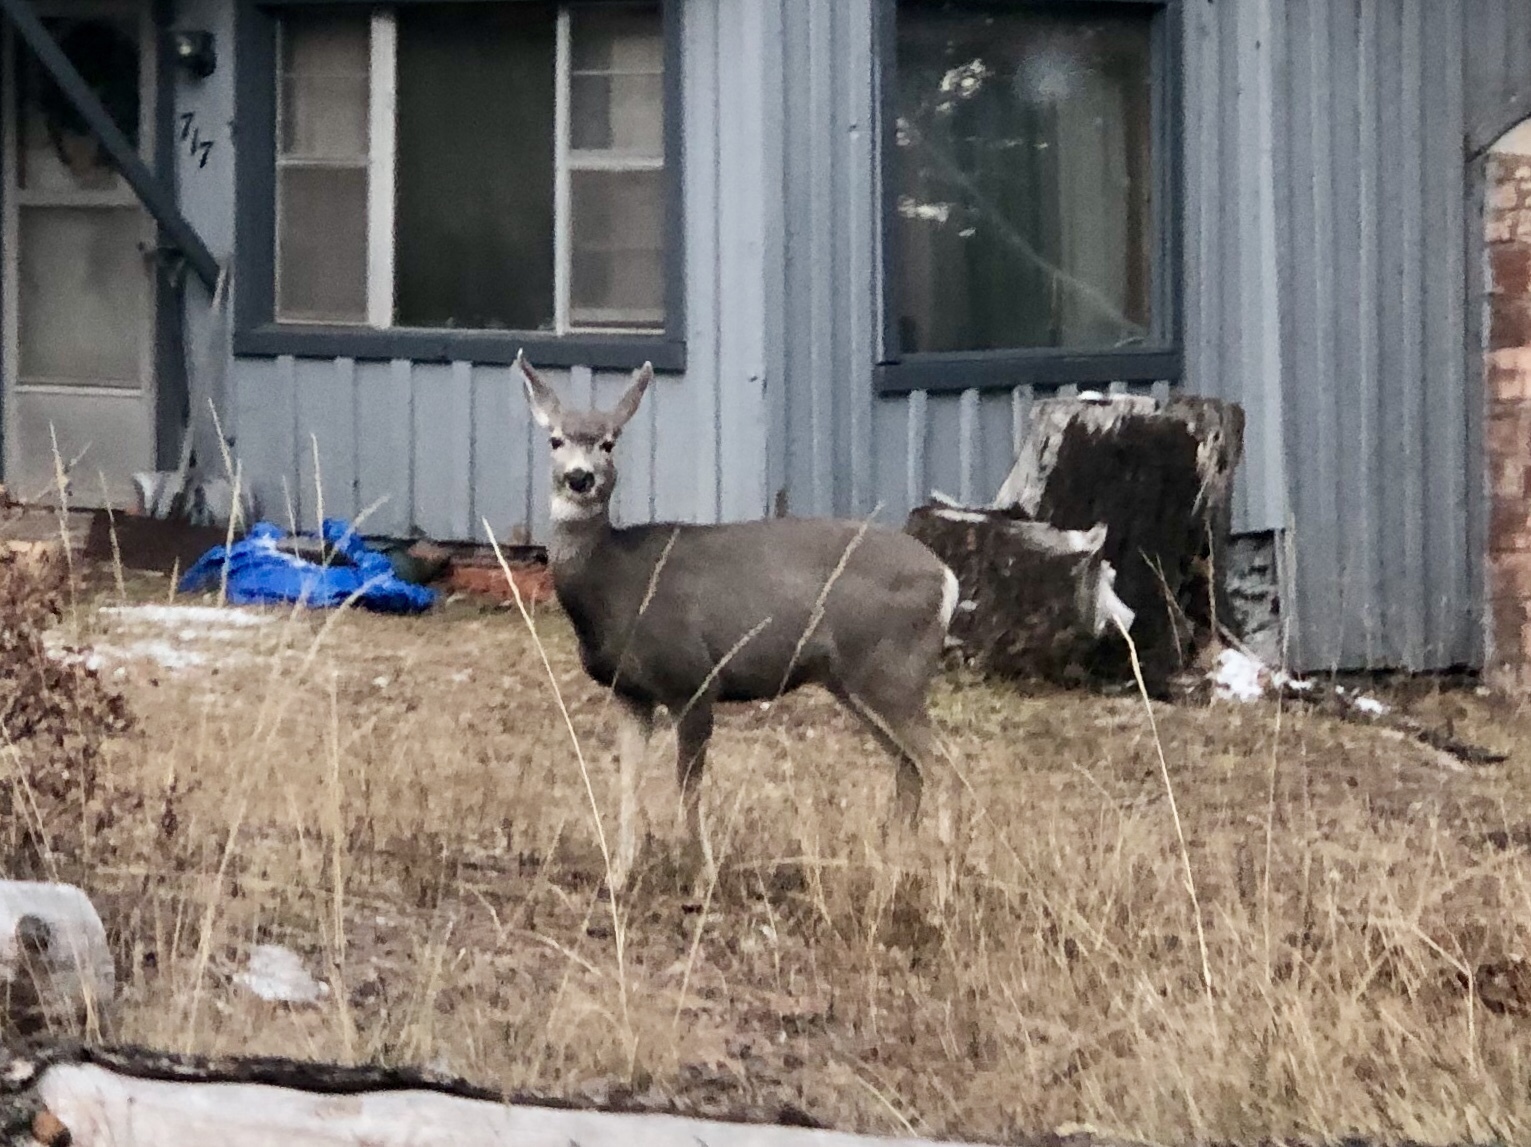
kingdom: Animalia
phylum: Chordata
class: Mammalia
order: Artiodactyla
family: Cervidae
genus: Odocoileus
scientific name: Odocoileus hemionus
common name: Mule deer
